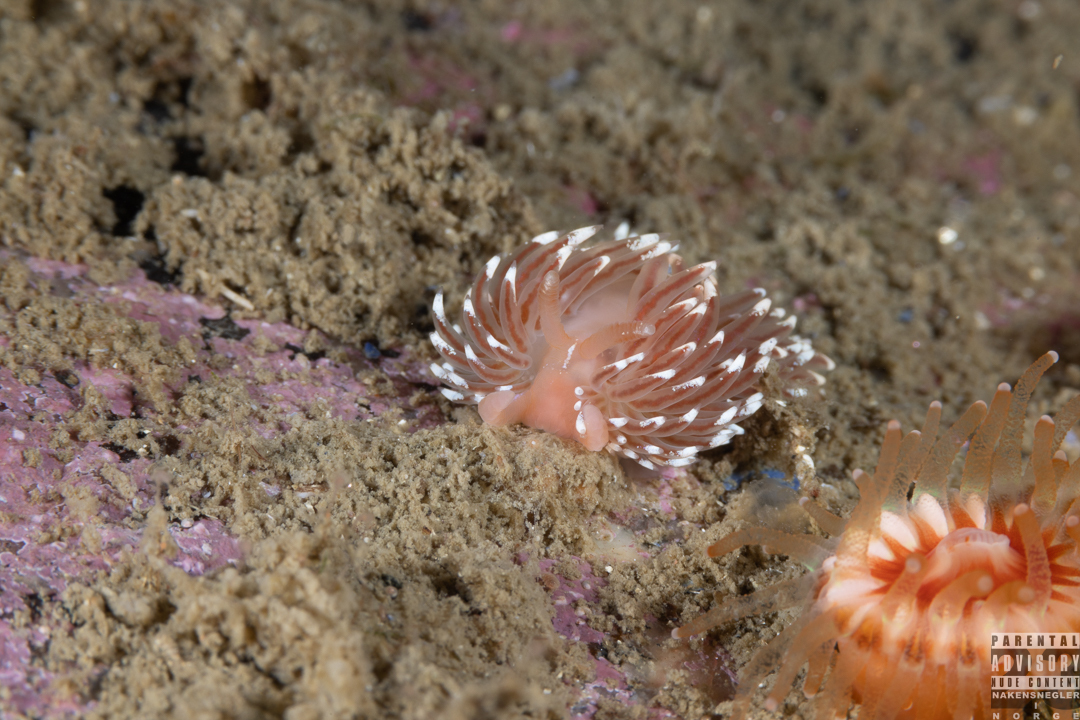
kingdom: Animalia
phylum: Mollusca
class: Gastropoda
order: Nudibranchia
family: Facelinidae
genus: Facelina
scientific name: Facelina bostoniensis
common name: Boston facelina
